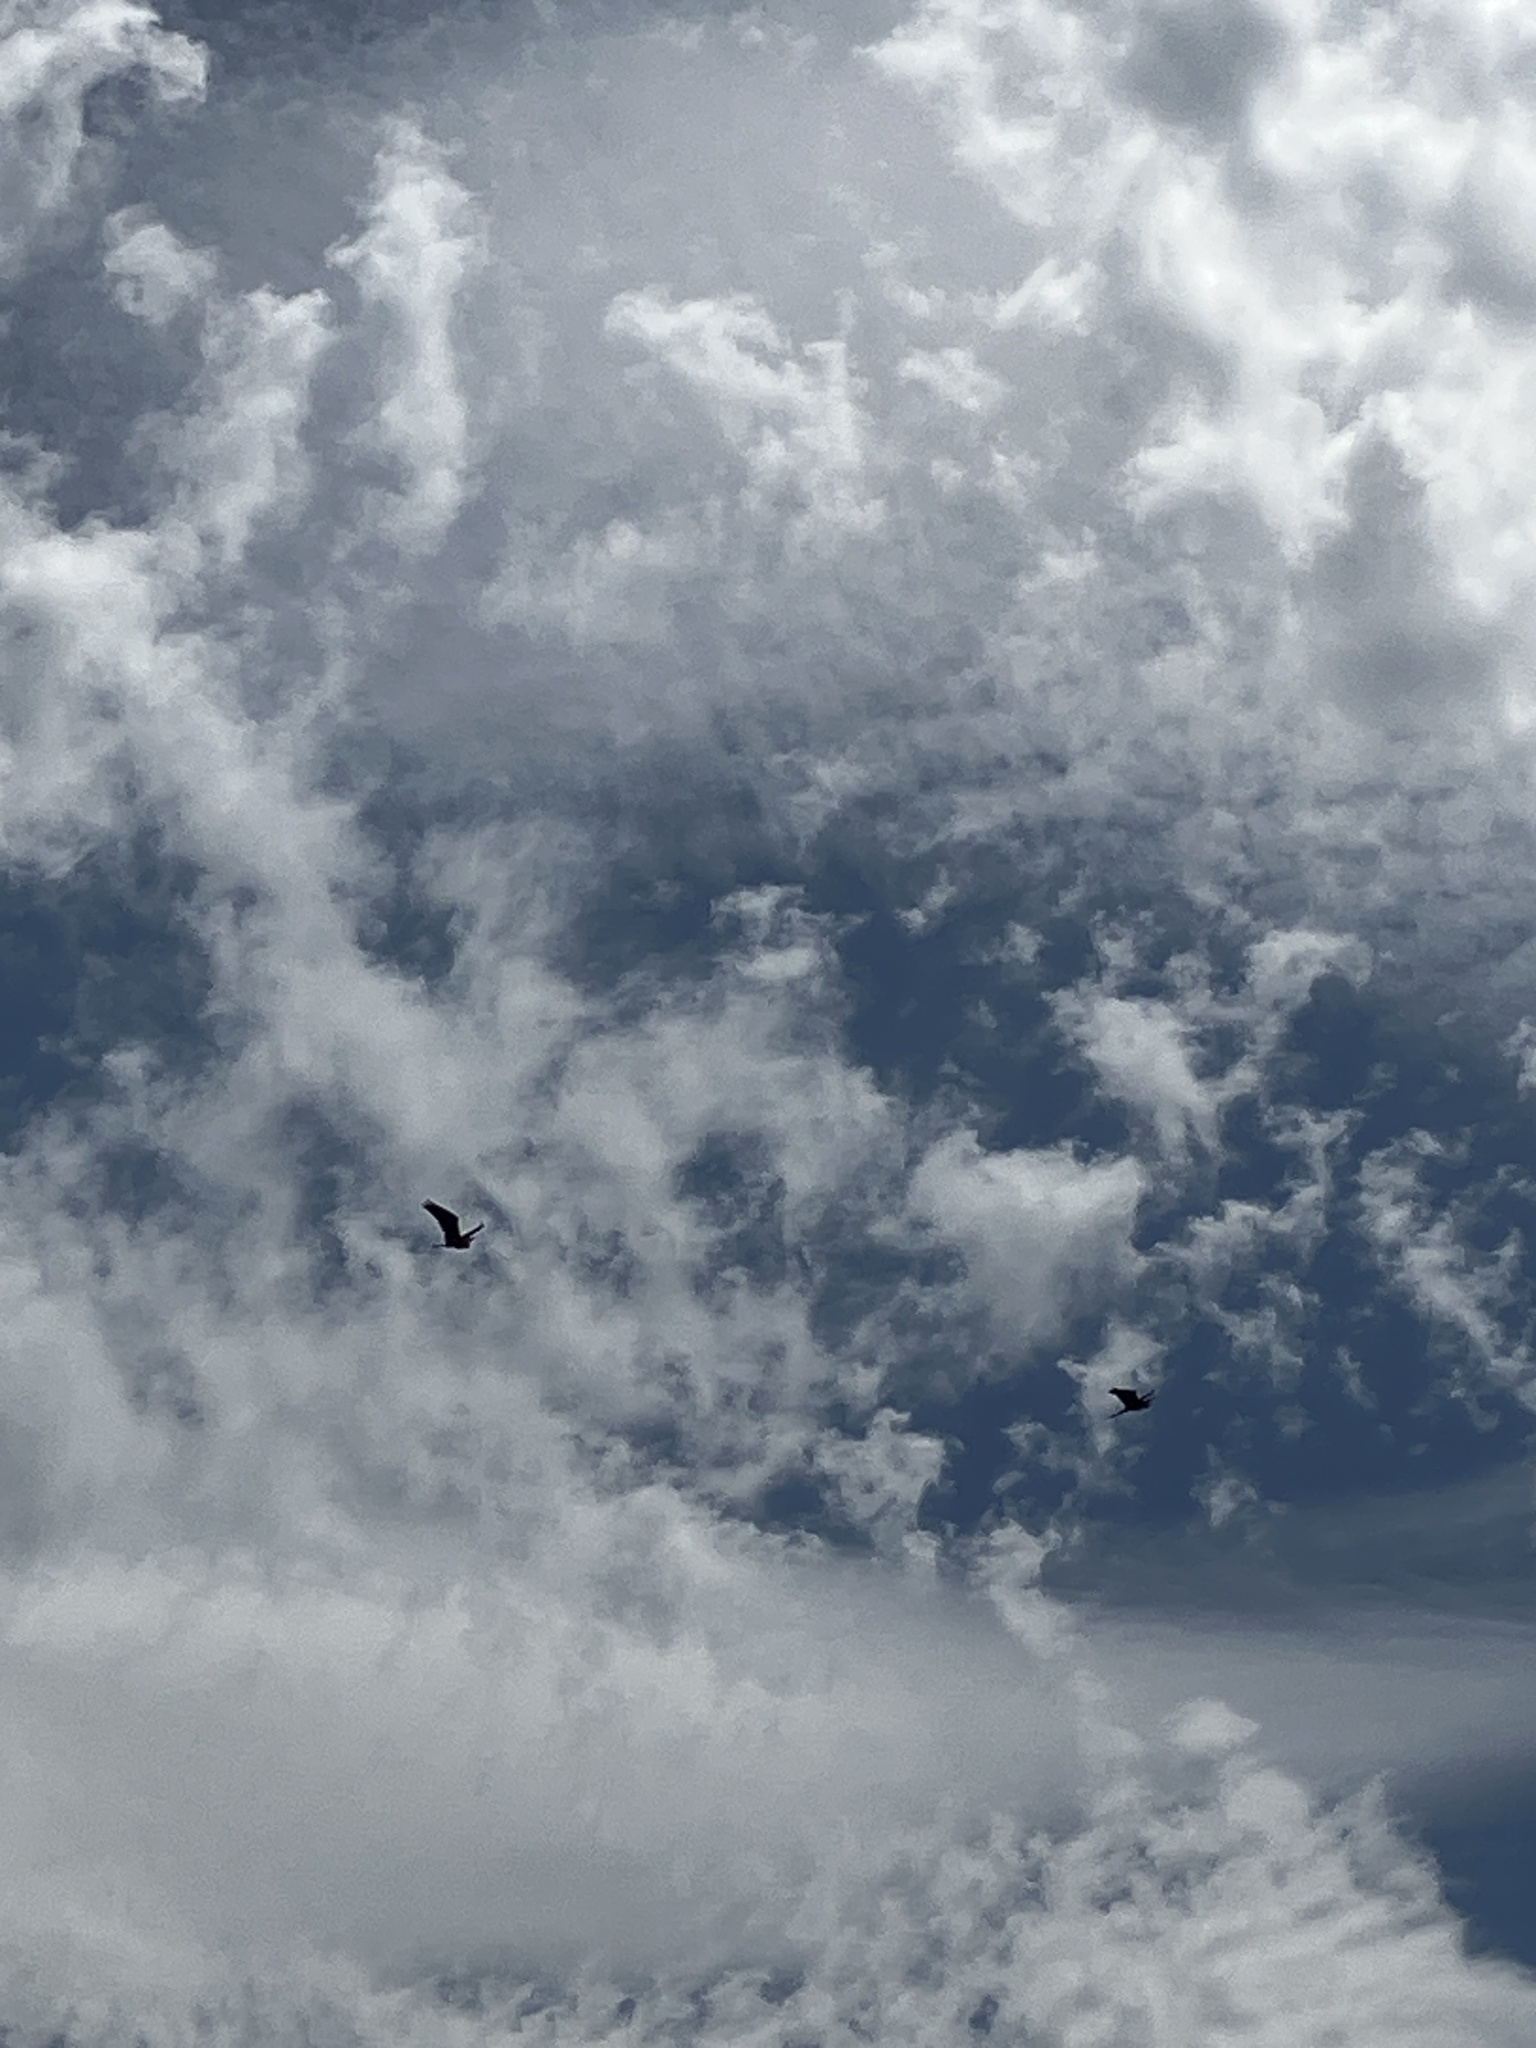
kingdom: Animalia
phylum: Chordata
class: Aves
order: Pelecaniformes
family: Ardeidae
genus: Ardea
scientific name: Ardea pacifica
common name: White-necked heron
